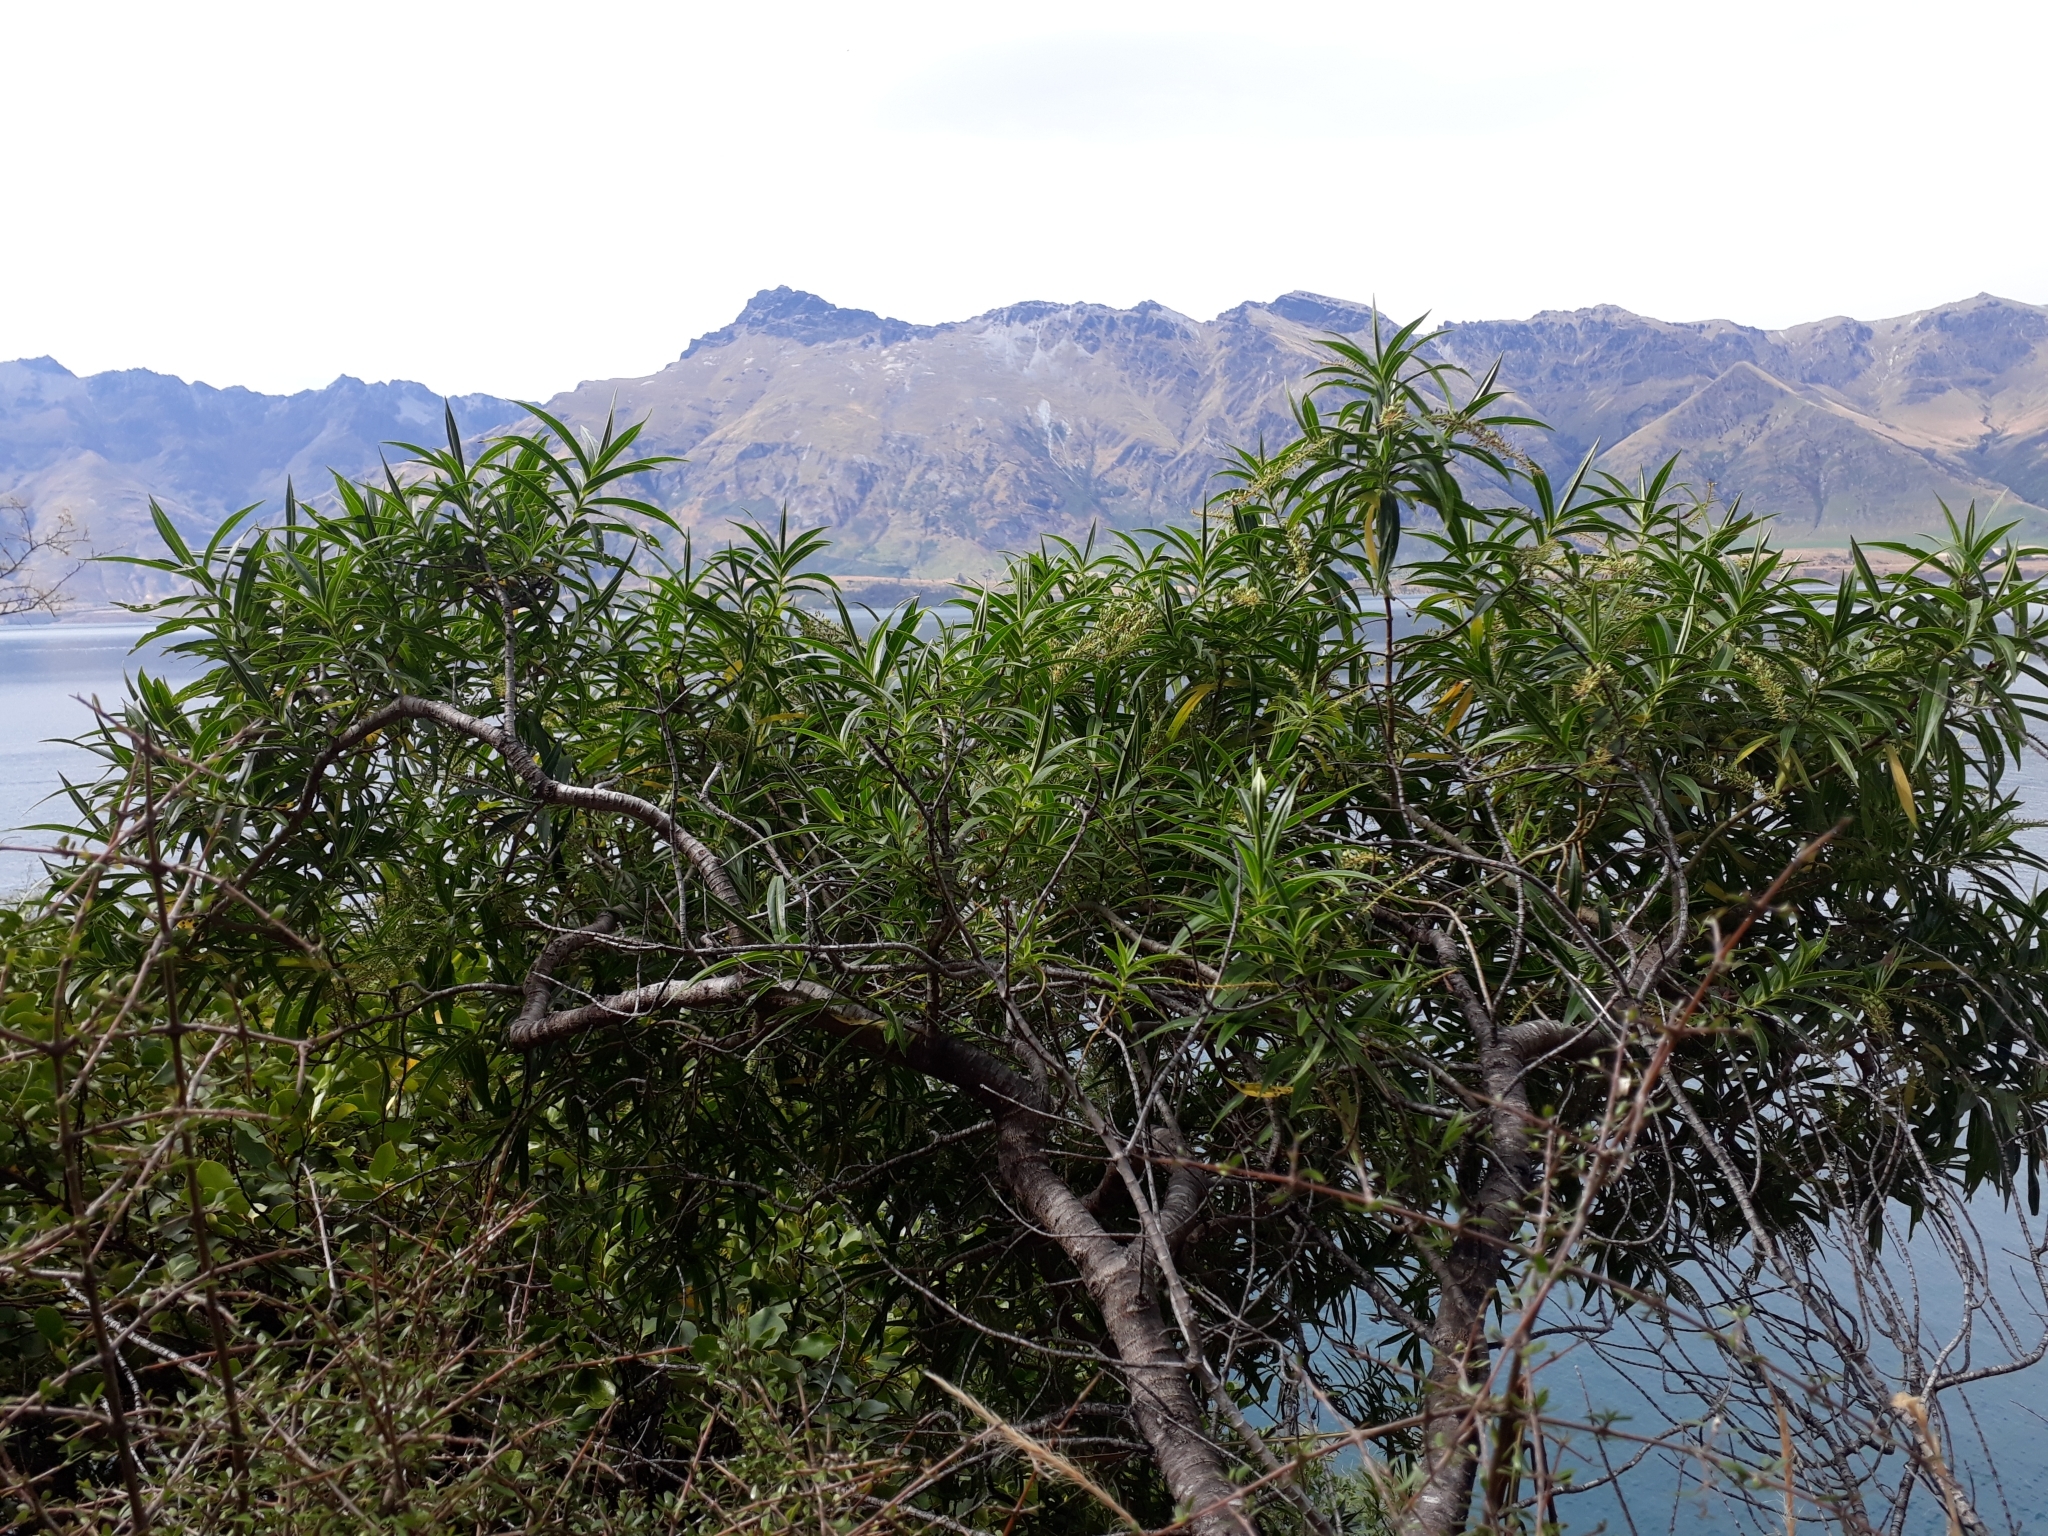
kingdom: Plantae
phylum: Tracheophyta
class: Magnoliopsida
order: Lamiales
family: Plantaginaceae
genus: Veronica
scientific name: Veronica salicifolia
